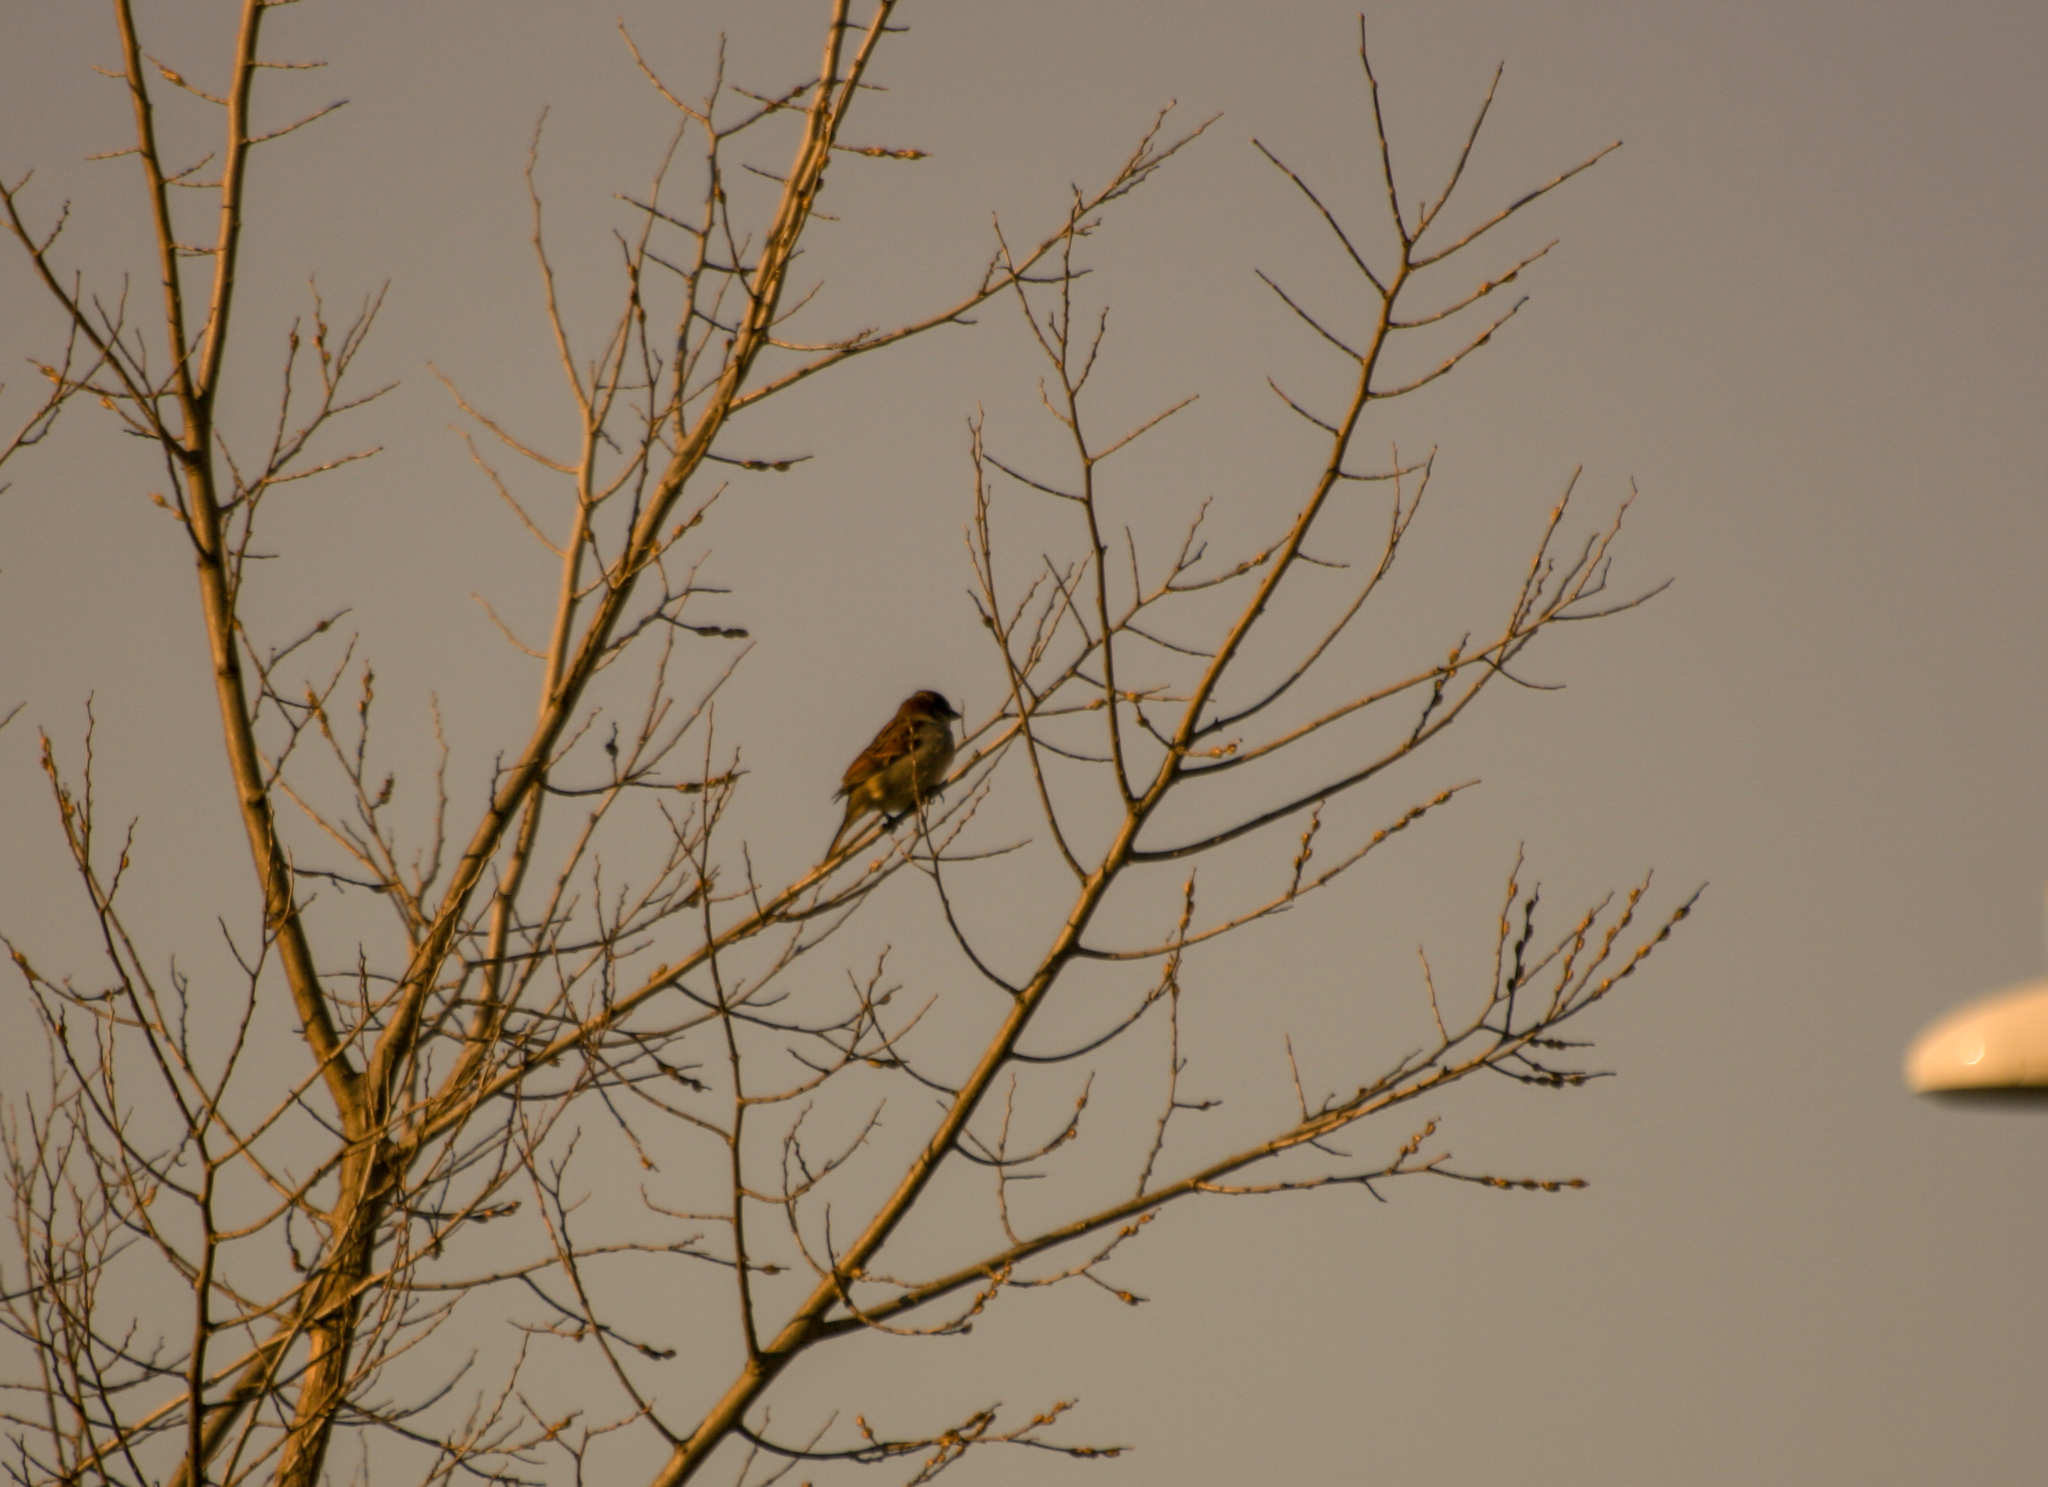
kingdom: Animalia
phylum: Chordata
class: Aves
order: Passeriformes
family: Passeridae
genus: Passer
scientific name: Passer domesticus
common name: House sparrow
